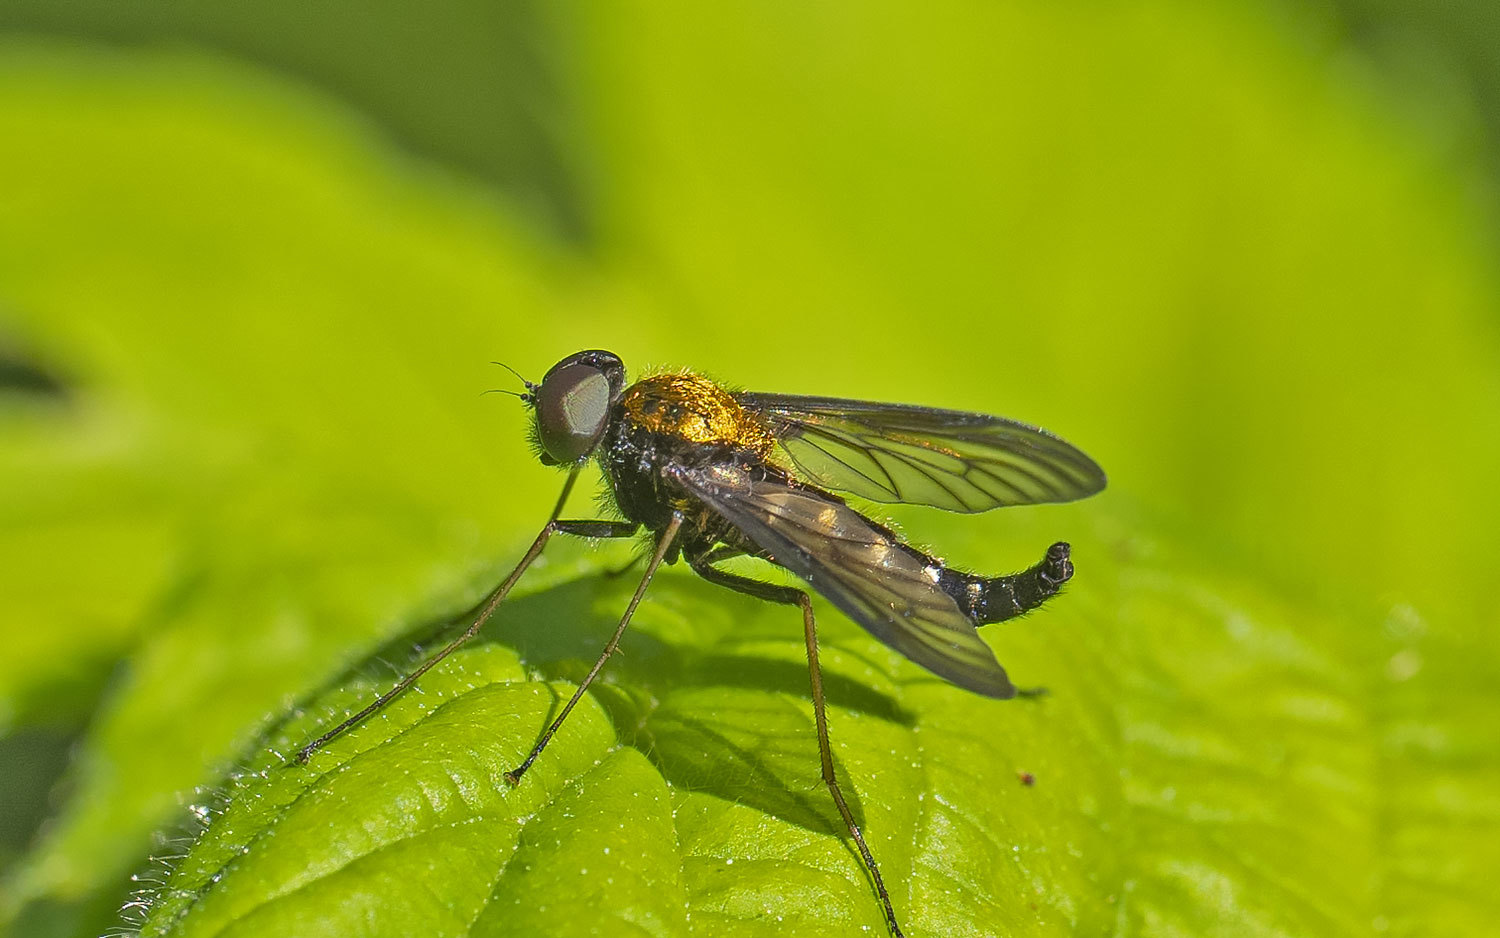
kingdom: Animalia
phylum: Arthropoda
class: Insecta
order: Diptera
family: Rhagionidae
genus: Chrysopilus
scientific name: Chrysopilus thoracicus
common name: Golden-backed snipe fly
